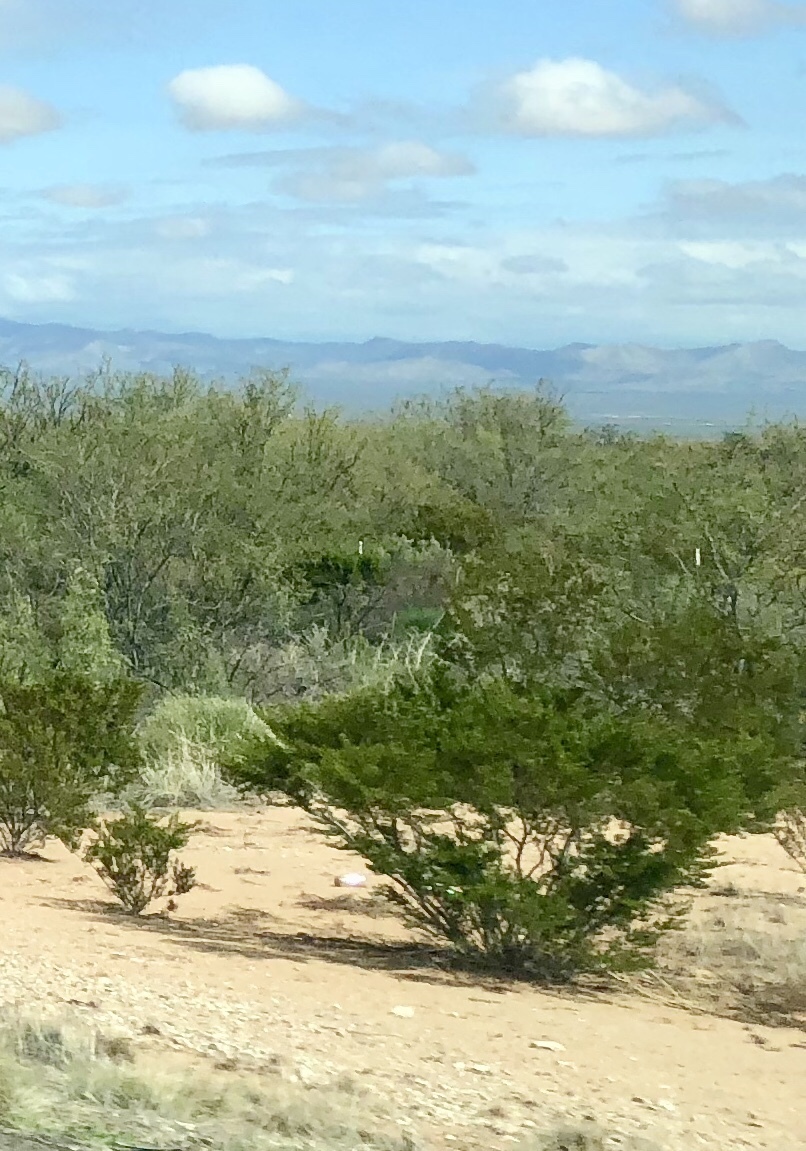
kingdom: Plantae
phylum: Tracheophyta
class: Magnoliopsida
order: Zygophyllales
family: Zygophyllaceae
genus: Larrea
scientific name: Larrea tridentata
